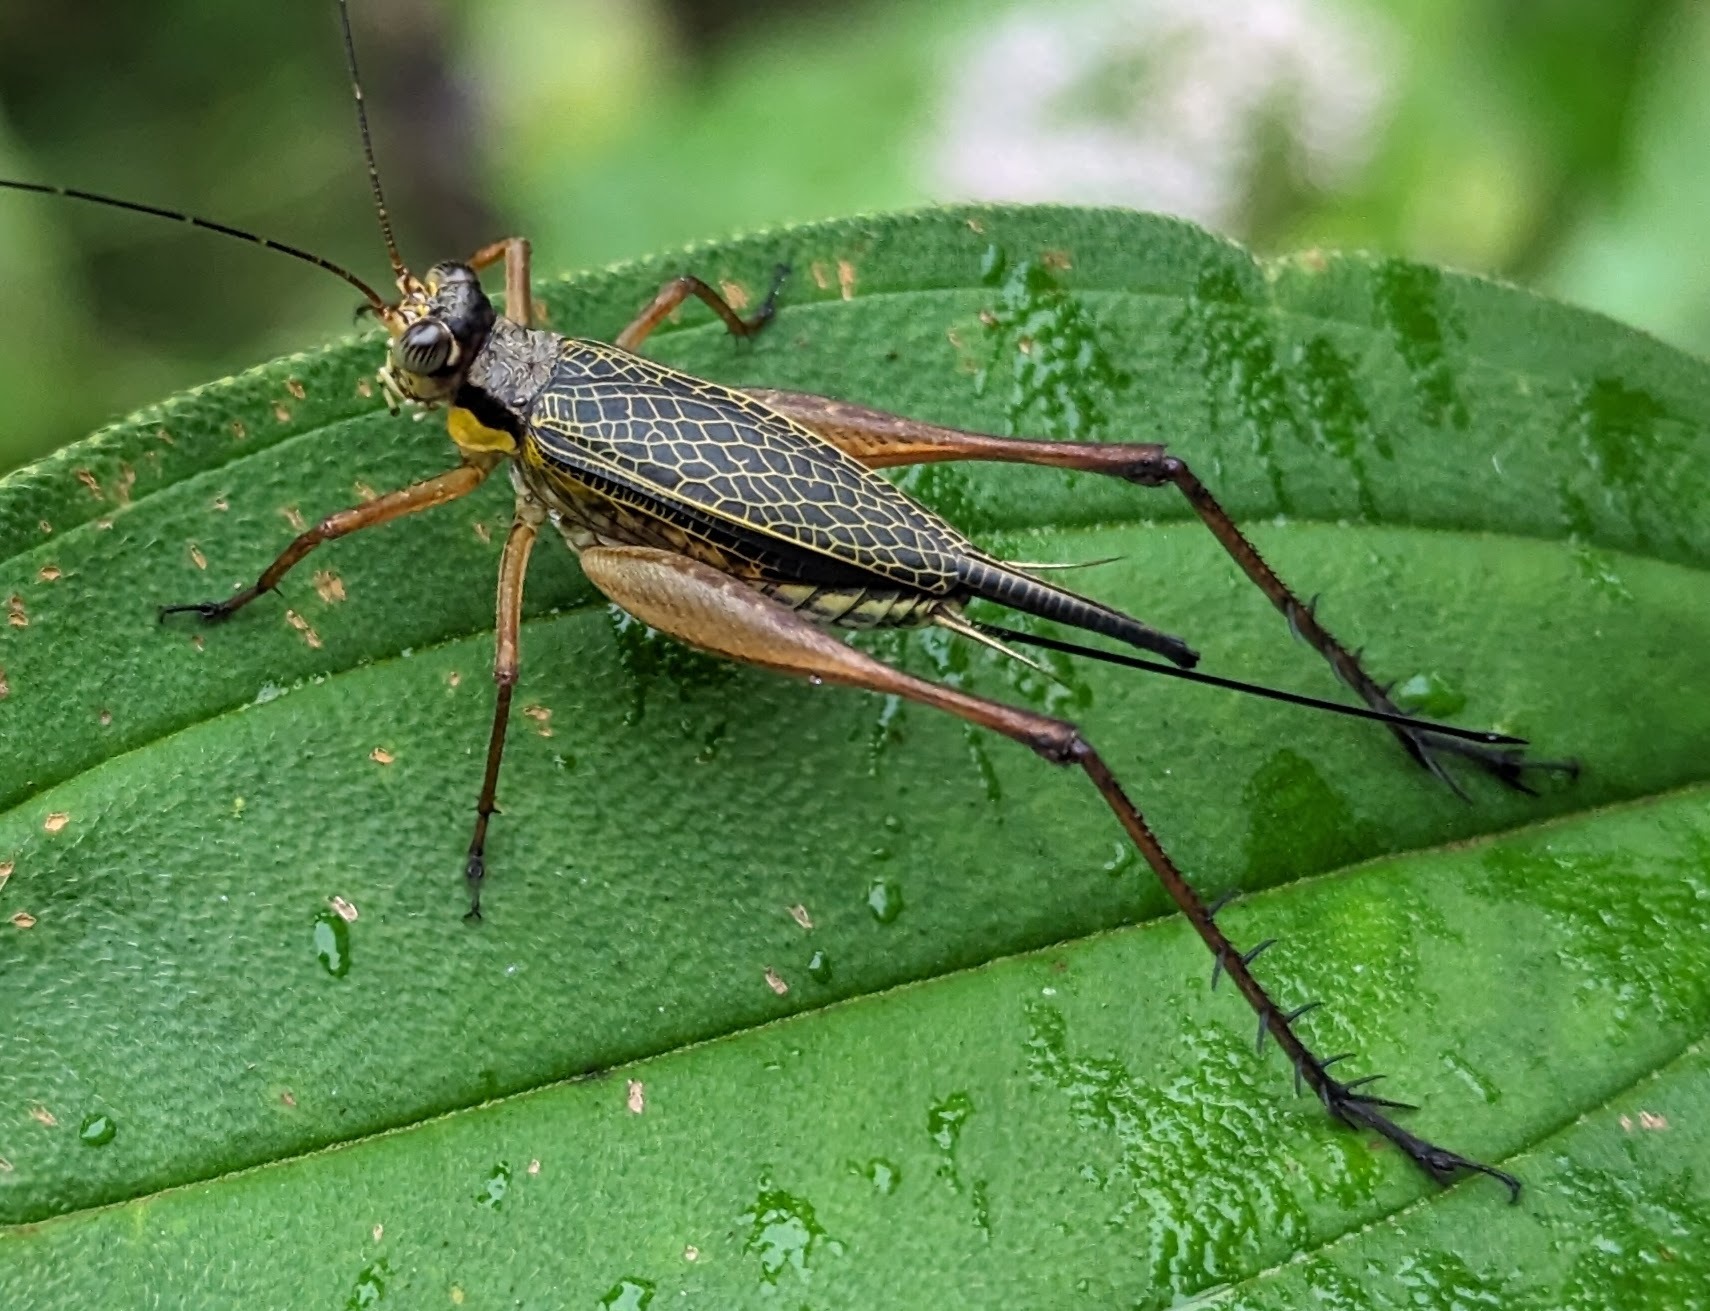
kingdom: Animalia
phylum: Arthropoda
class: Insecta
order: Orthoptera
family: Gryllidae
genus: Nisitrus
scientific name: Nisitrus vittatus
